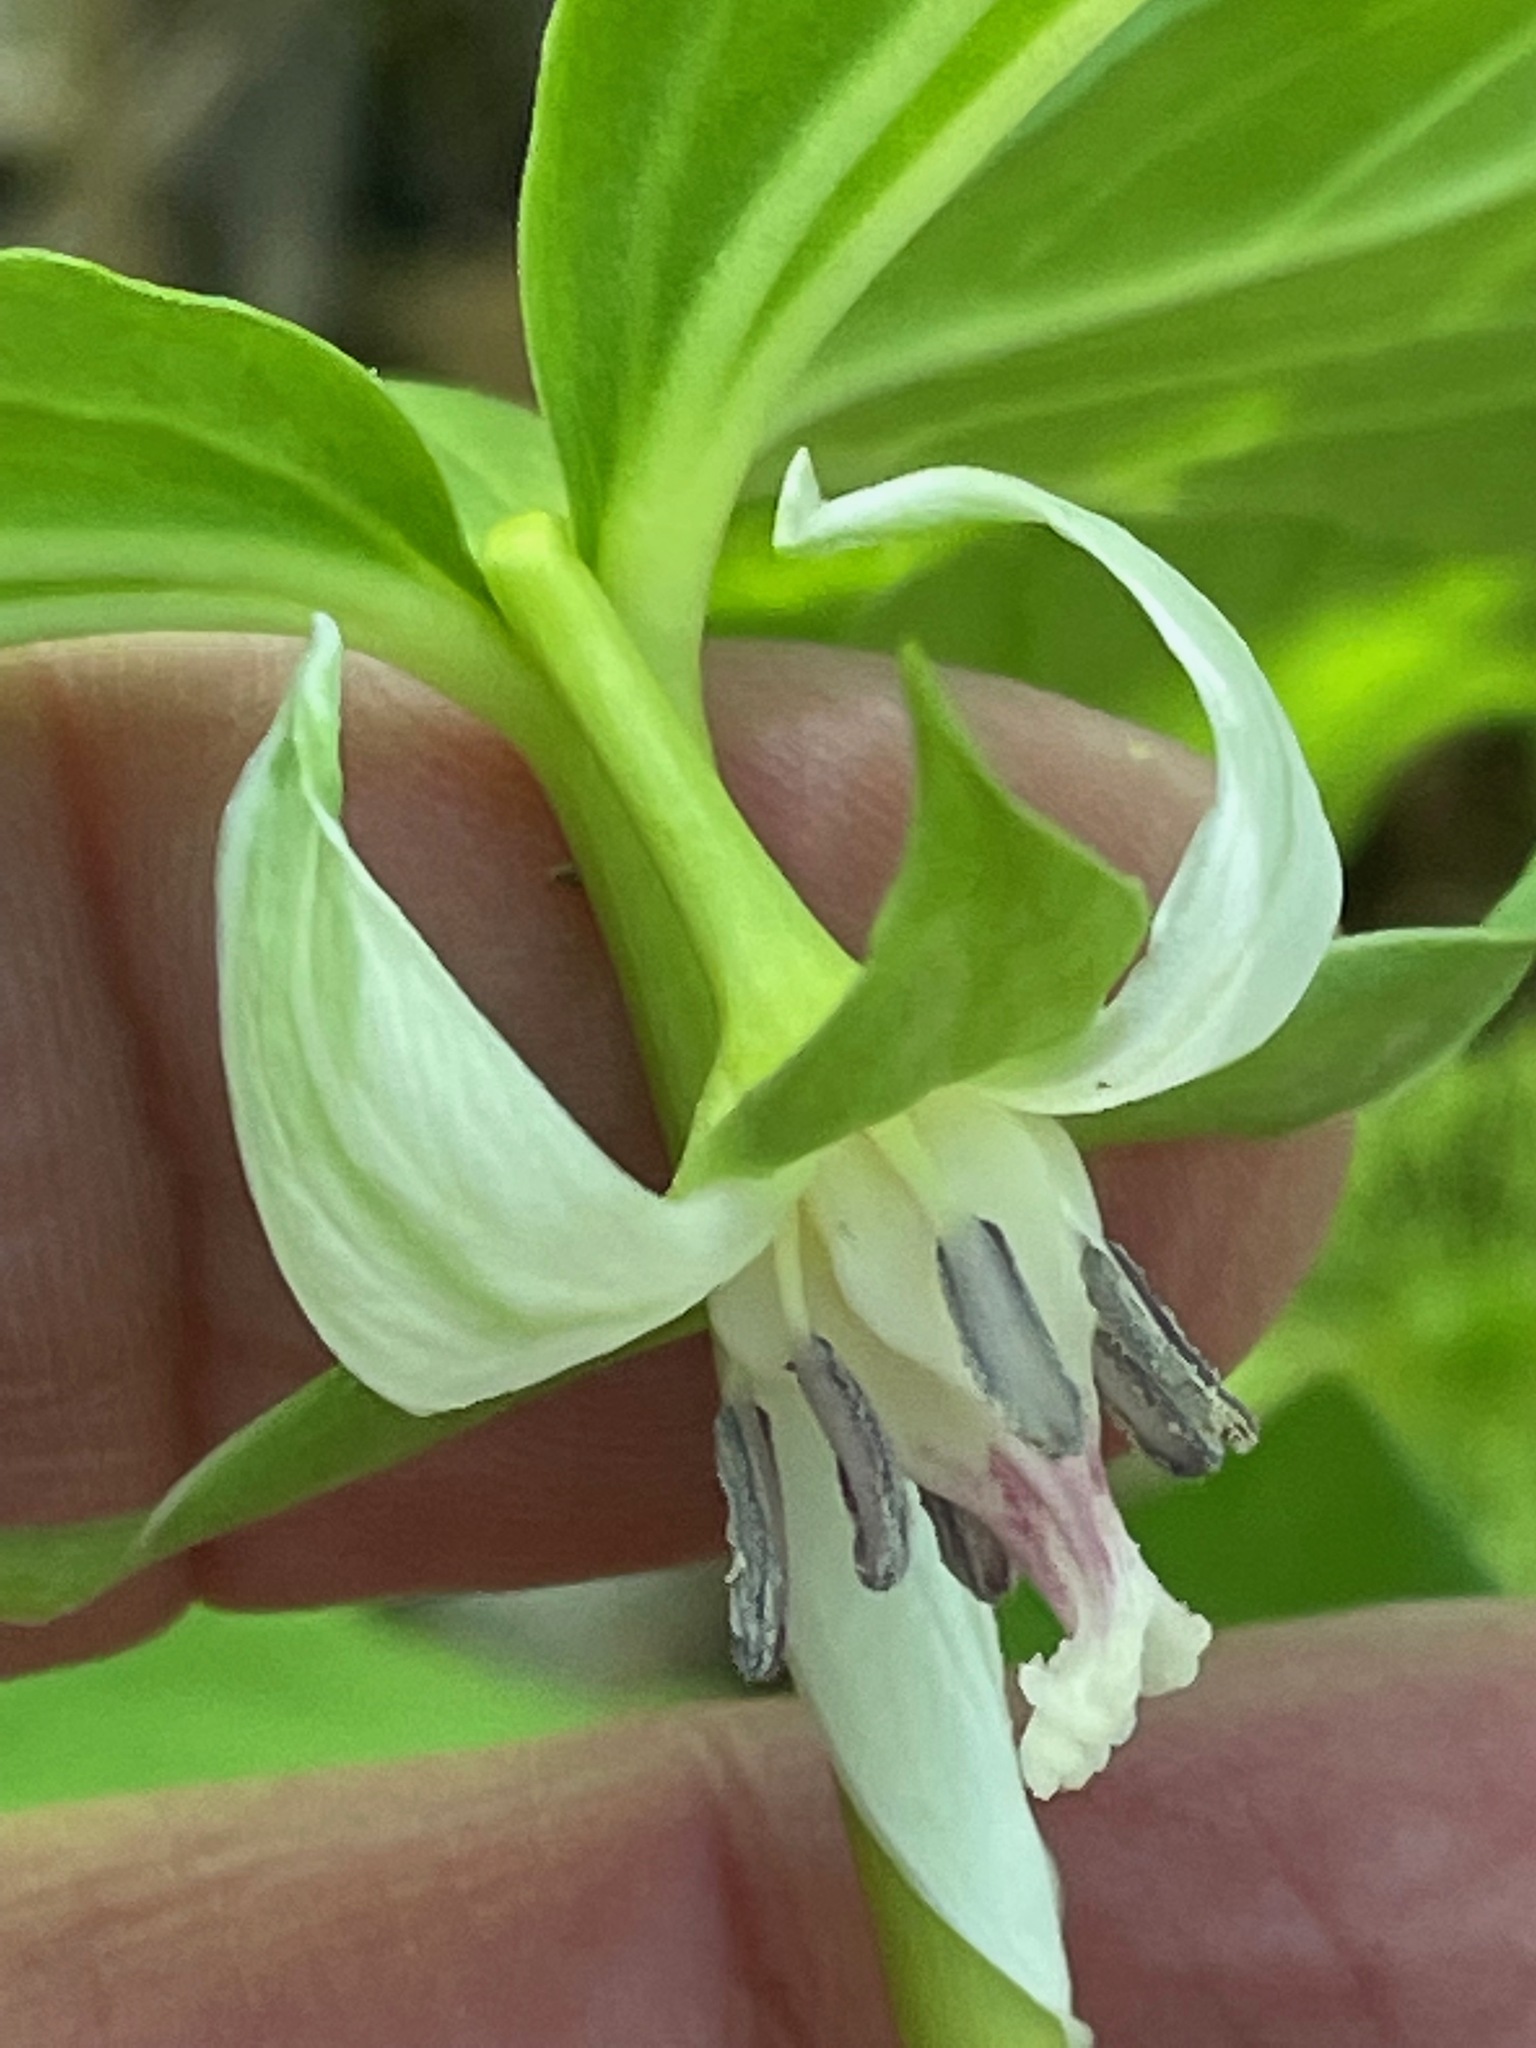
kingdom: Plantae
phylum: Tracheophyta
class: Liliopsida
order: Liliales
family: Melanthiaceae
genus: Trillium
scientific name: Trillium cernuum
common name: Nodding trillium
